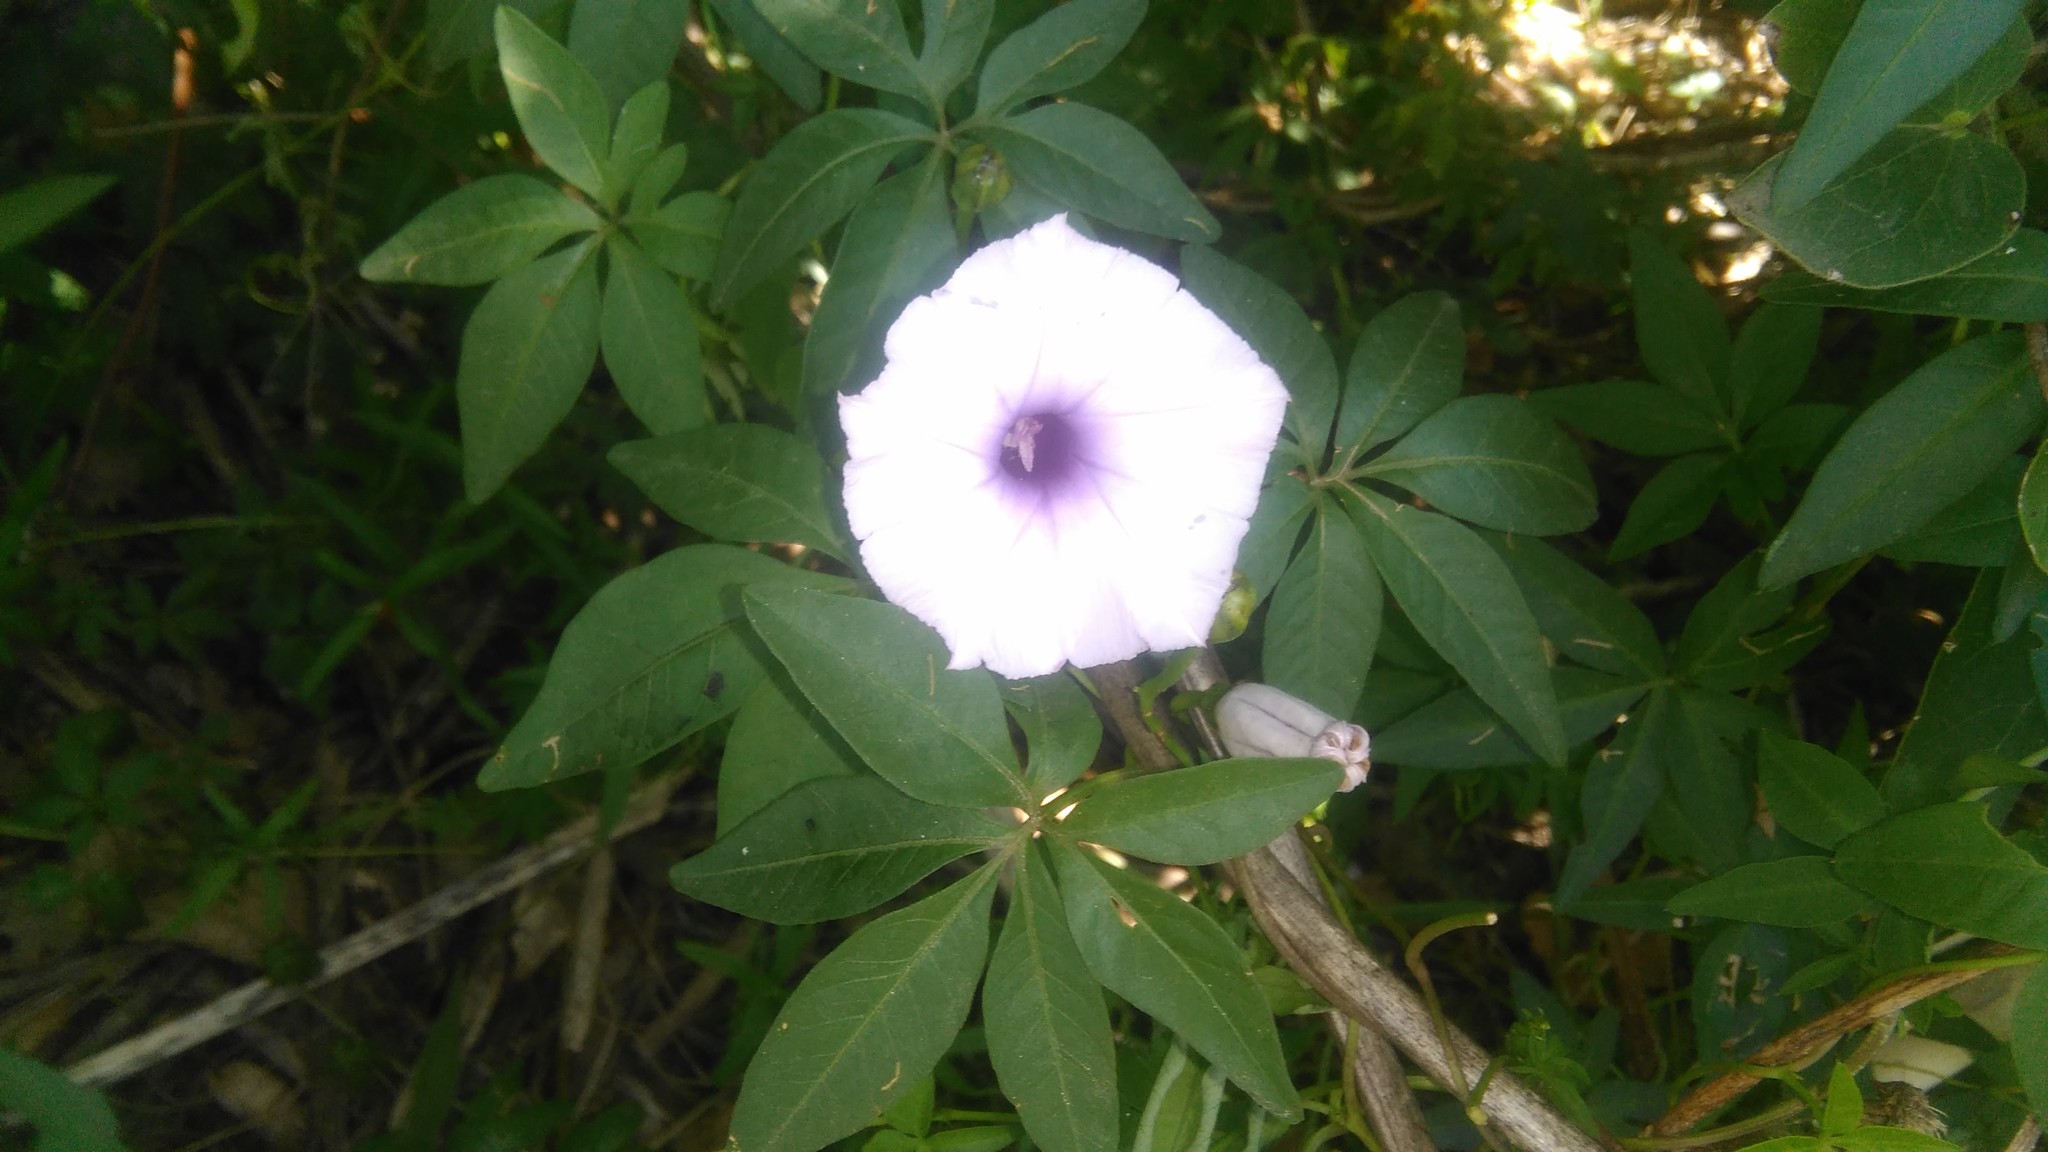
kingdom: Plantae
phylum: Tracheophyta
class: Magnoliopsida
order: Solanales
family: Convolvulaceae
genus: Ipomoea
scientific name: Ipomoea cairica
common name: Mile a minute vine
